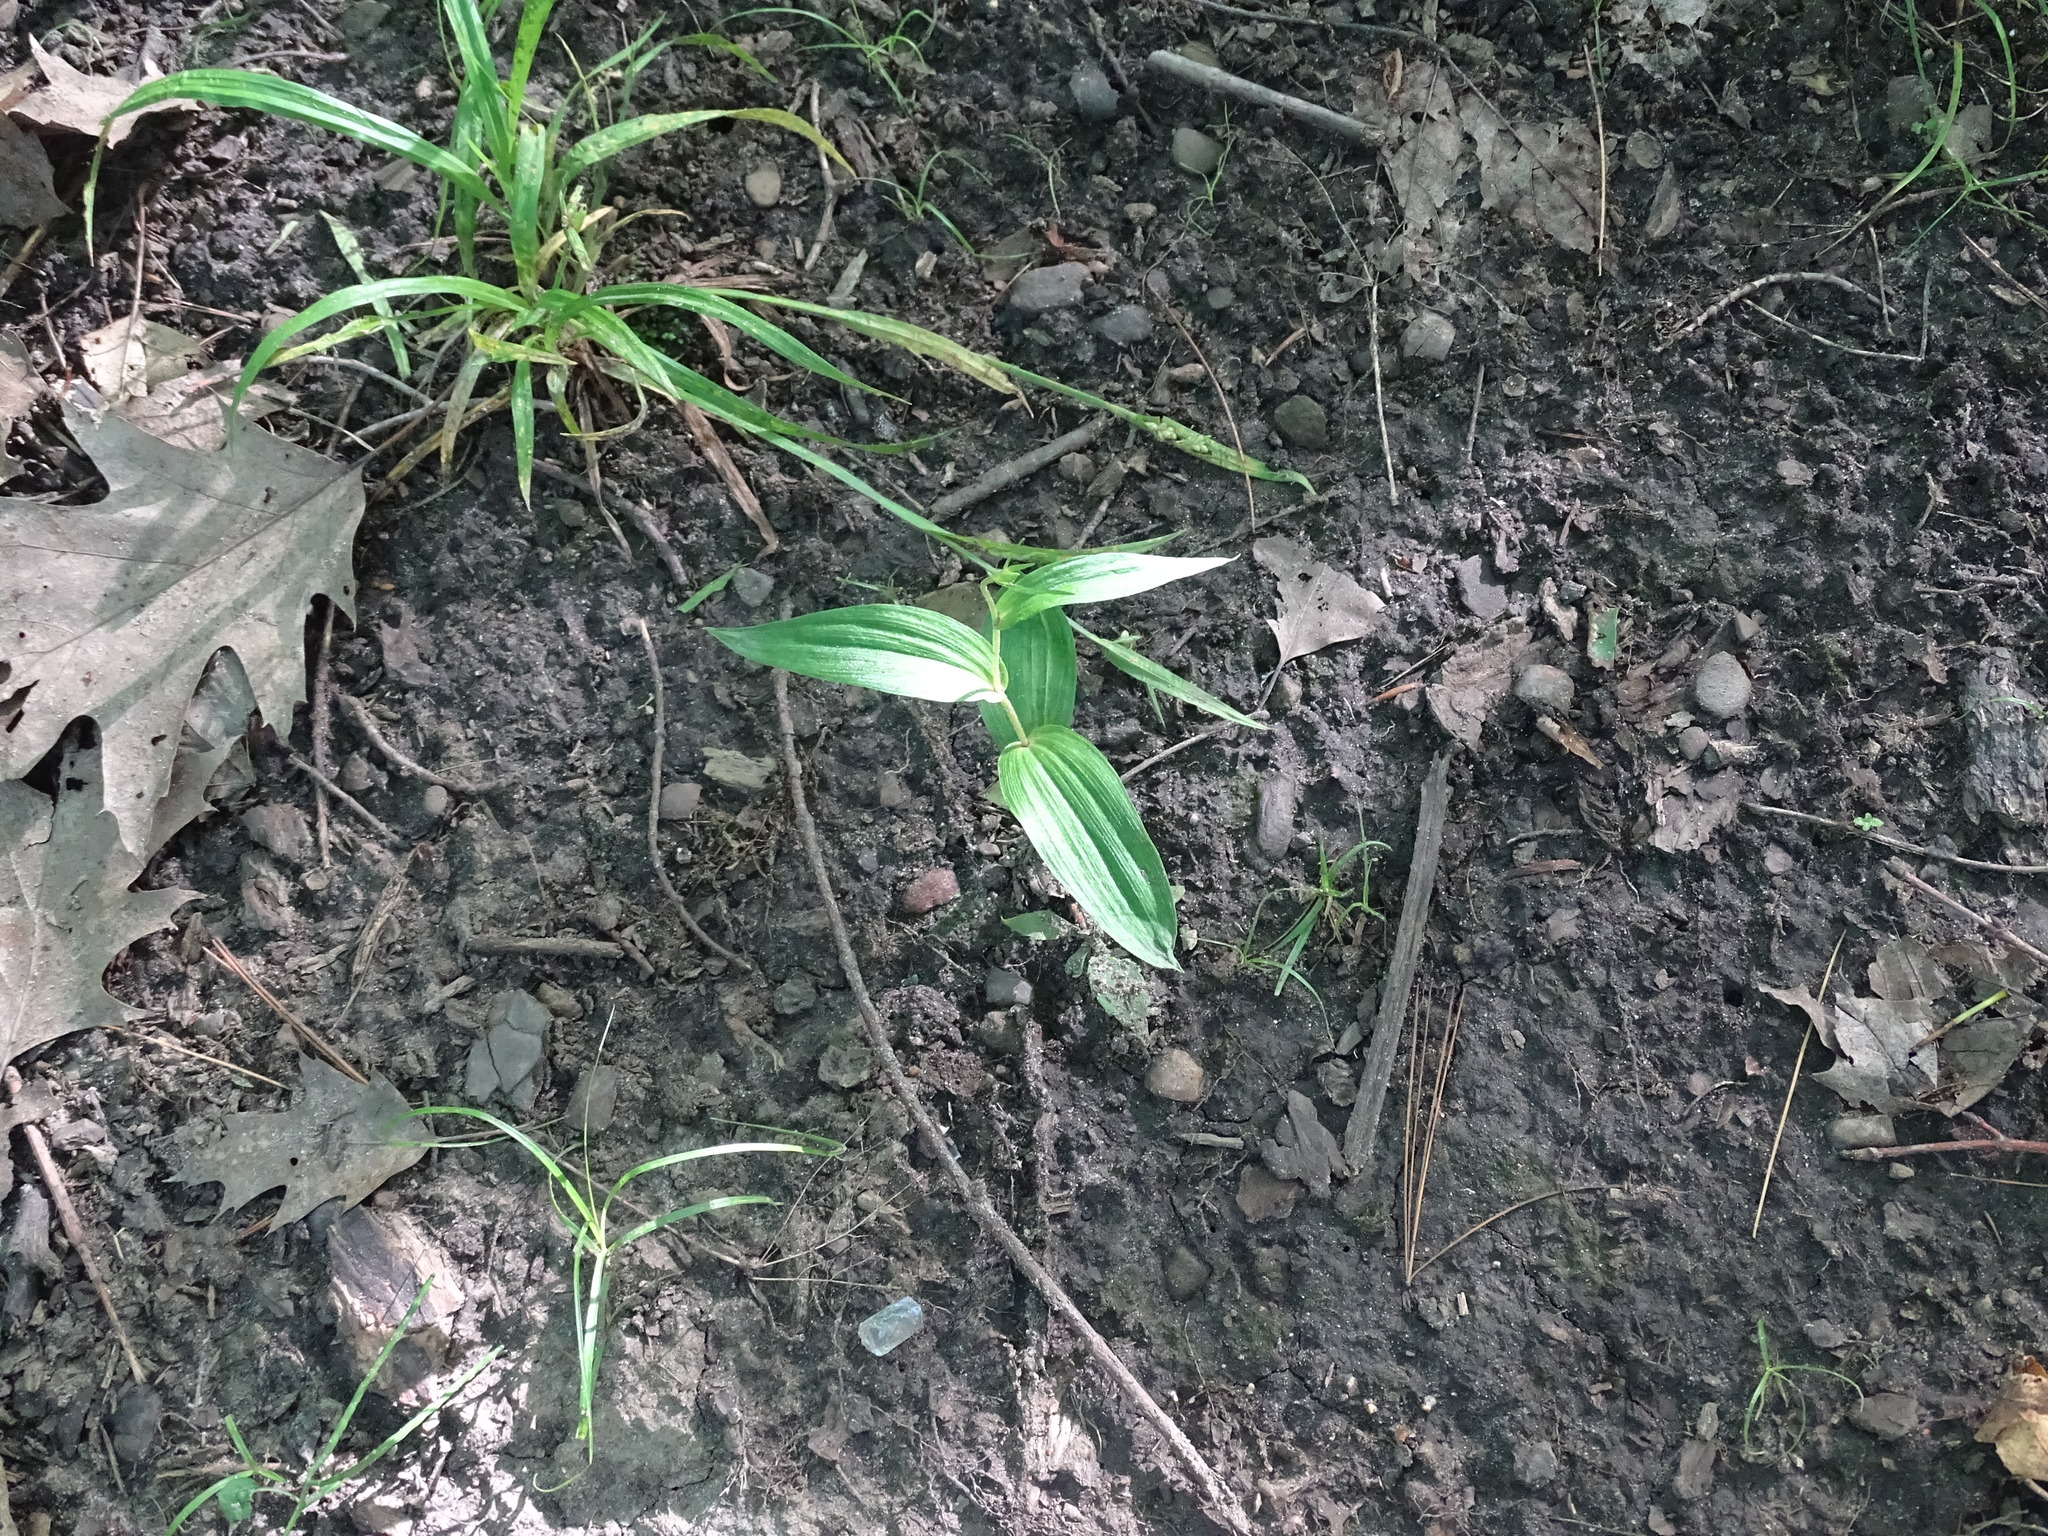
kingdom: Plantae
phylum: Tracheophyta
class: Liliopsida
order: Asparagales
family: Orchidaceae
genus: Epipactis
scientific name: Epipactis helleborine
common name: Broad-leaved helleborine
